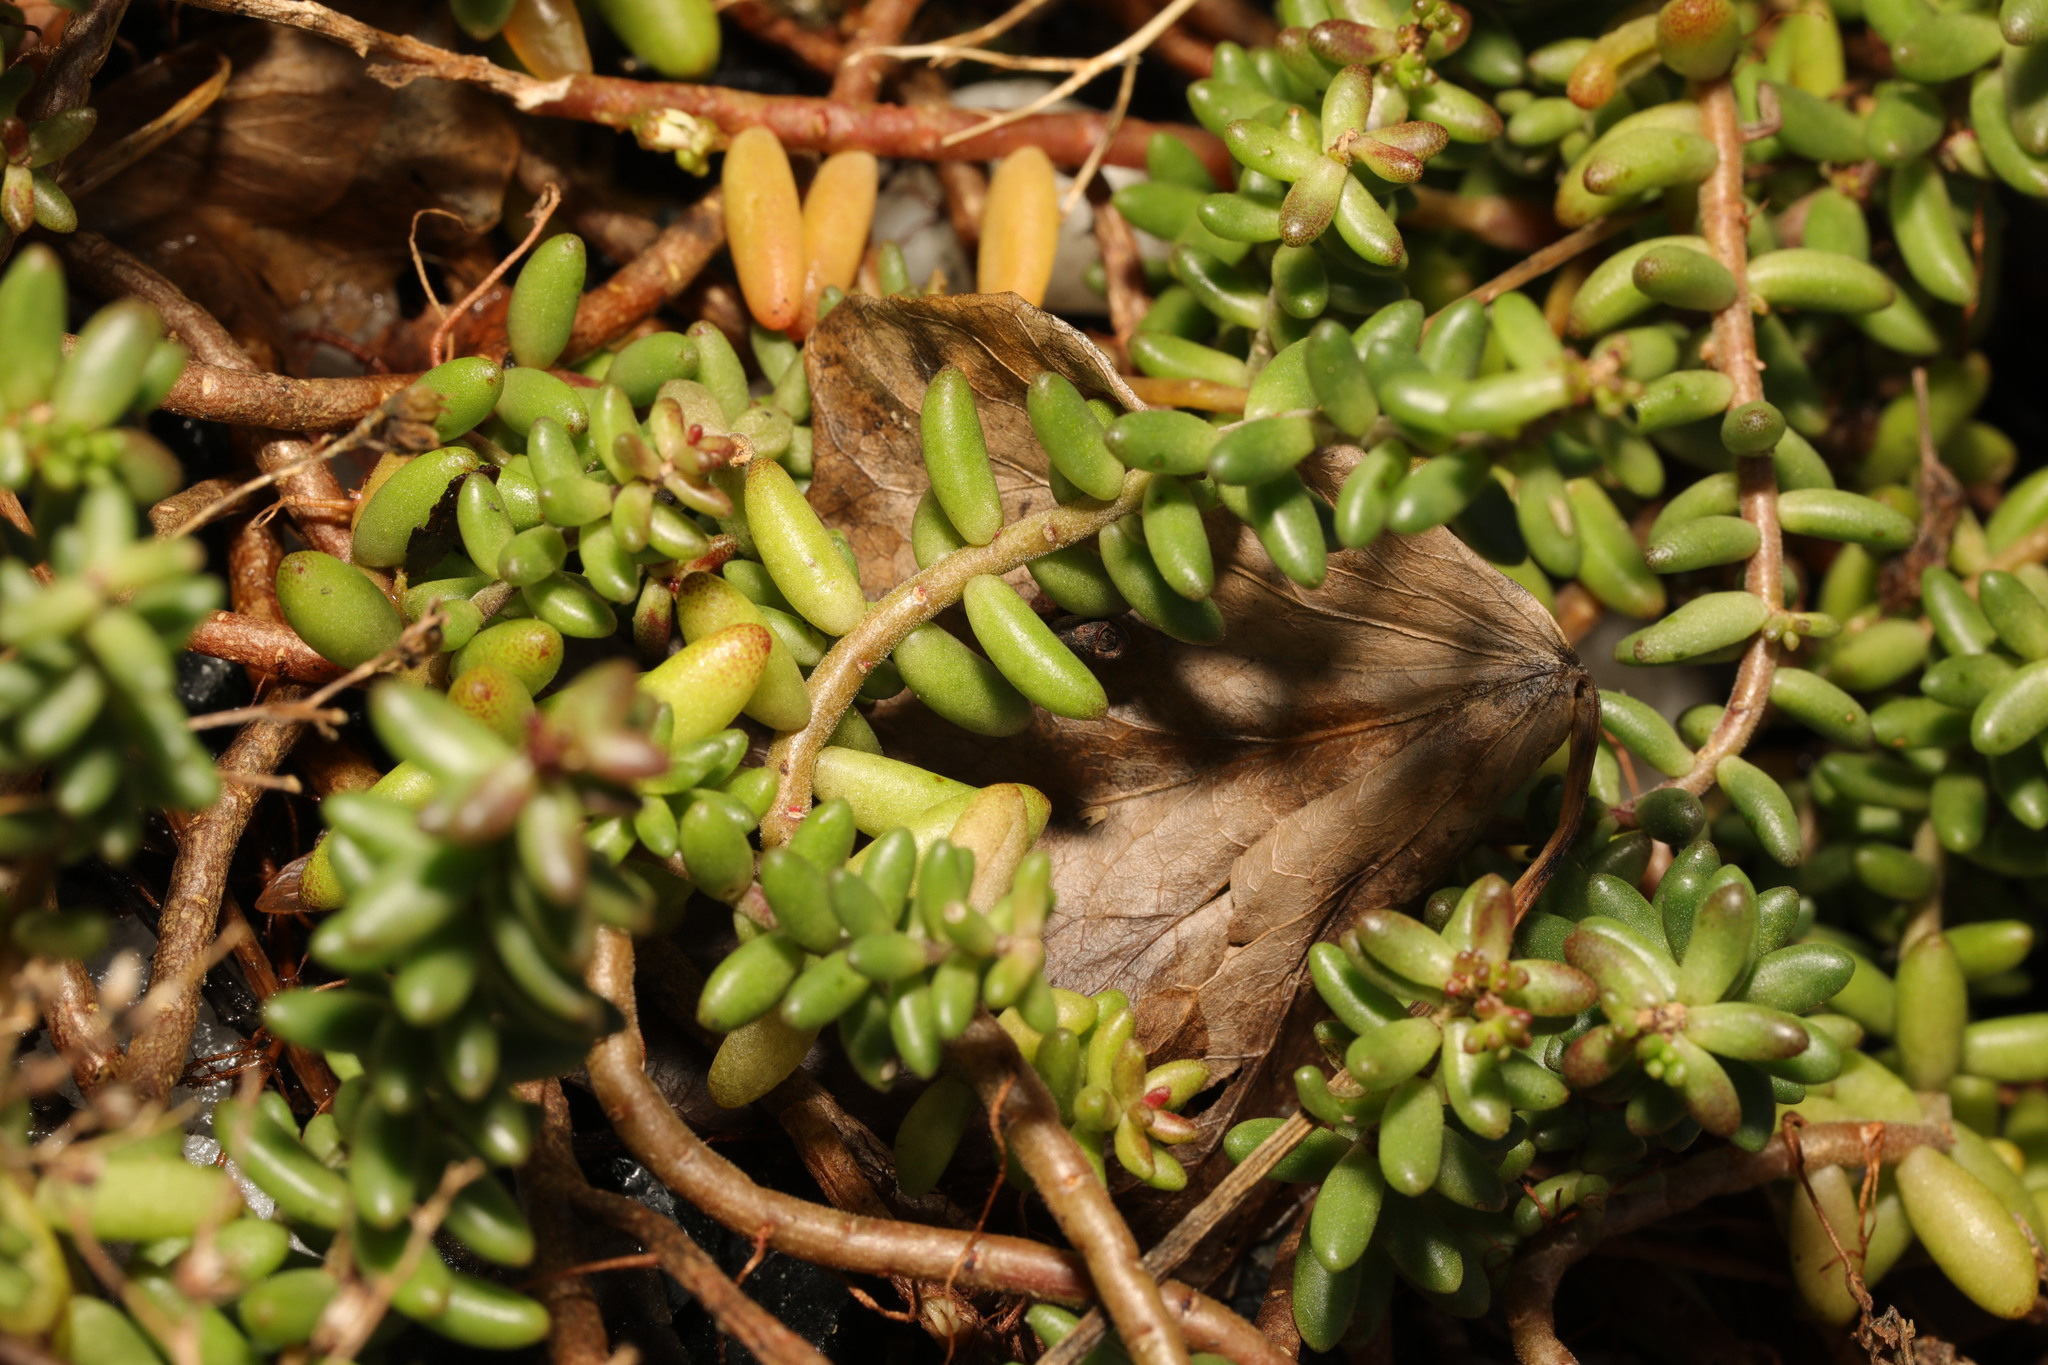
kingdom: Plantae
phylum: Tracheophyta
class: Magnoliopsida
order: Saxifragales
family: Crassulaceae
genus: Sedum
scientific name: Sedum album
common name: White stonecrop
